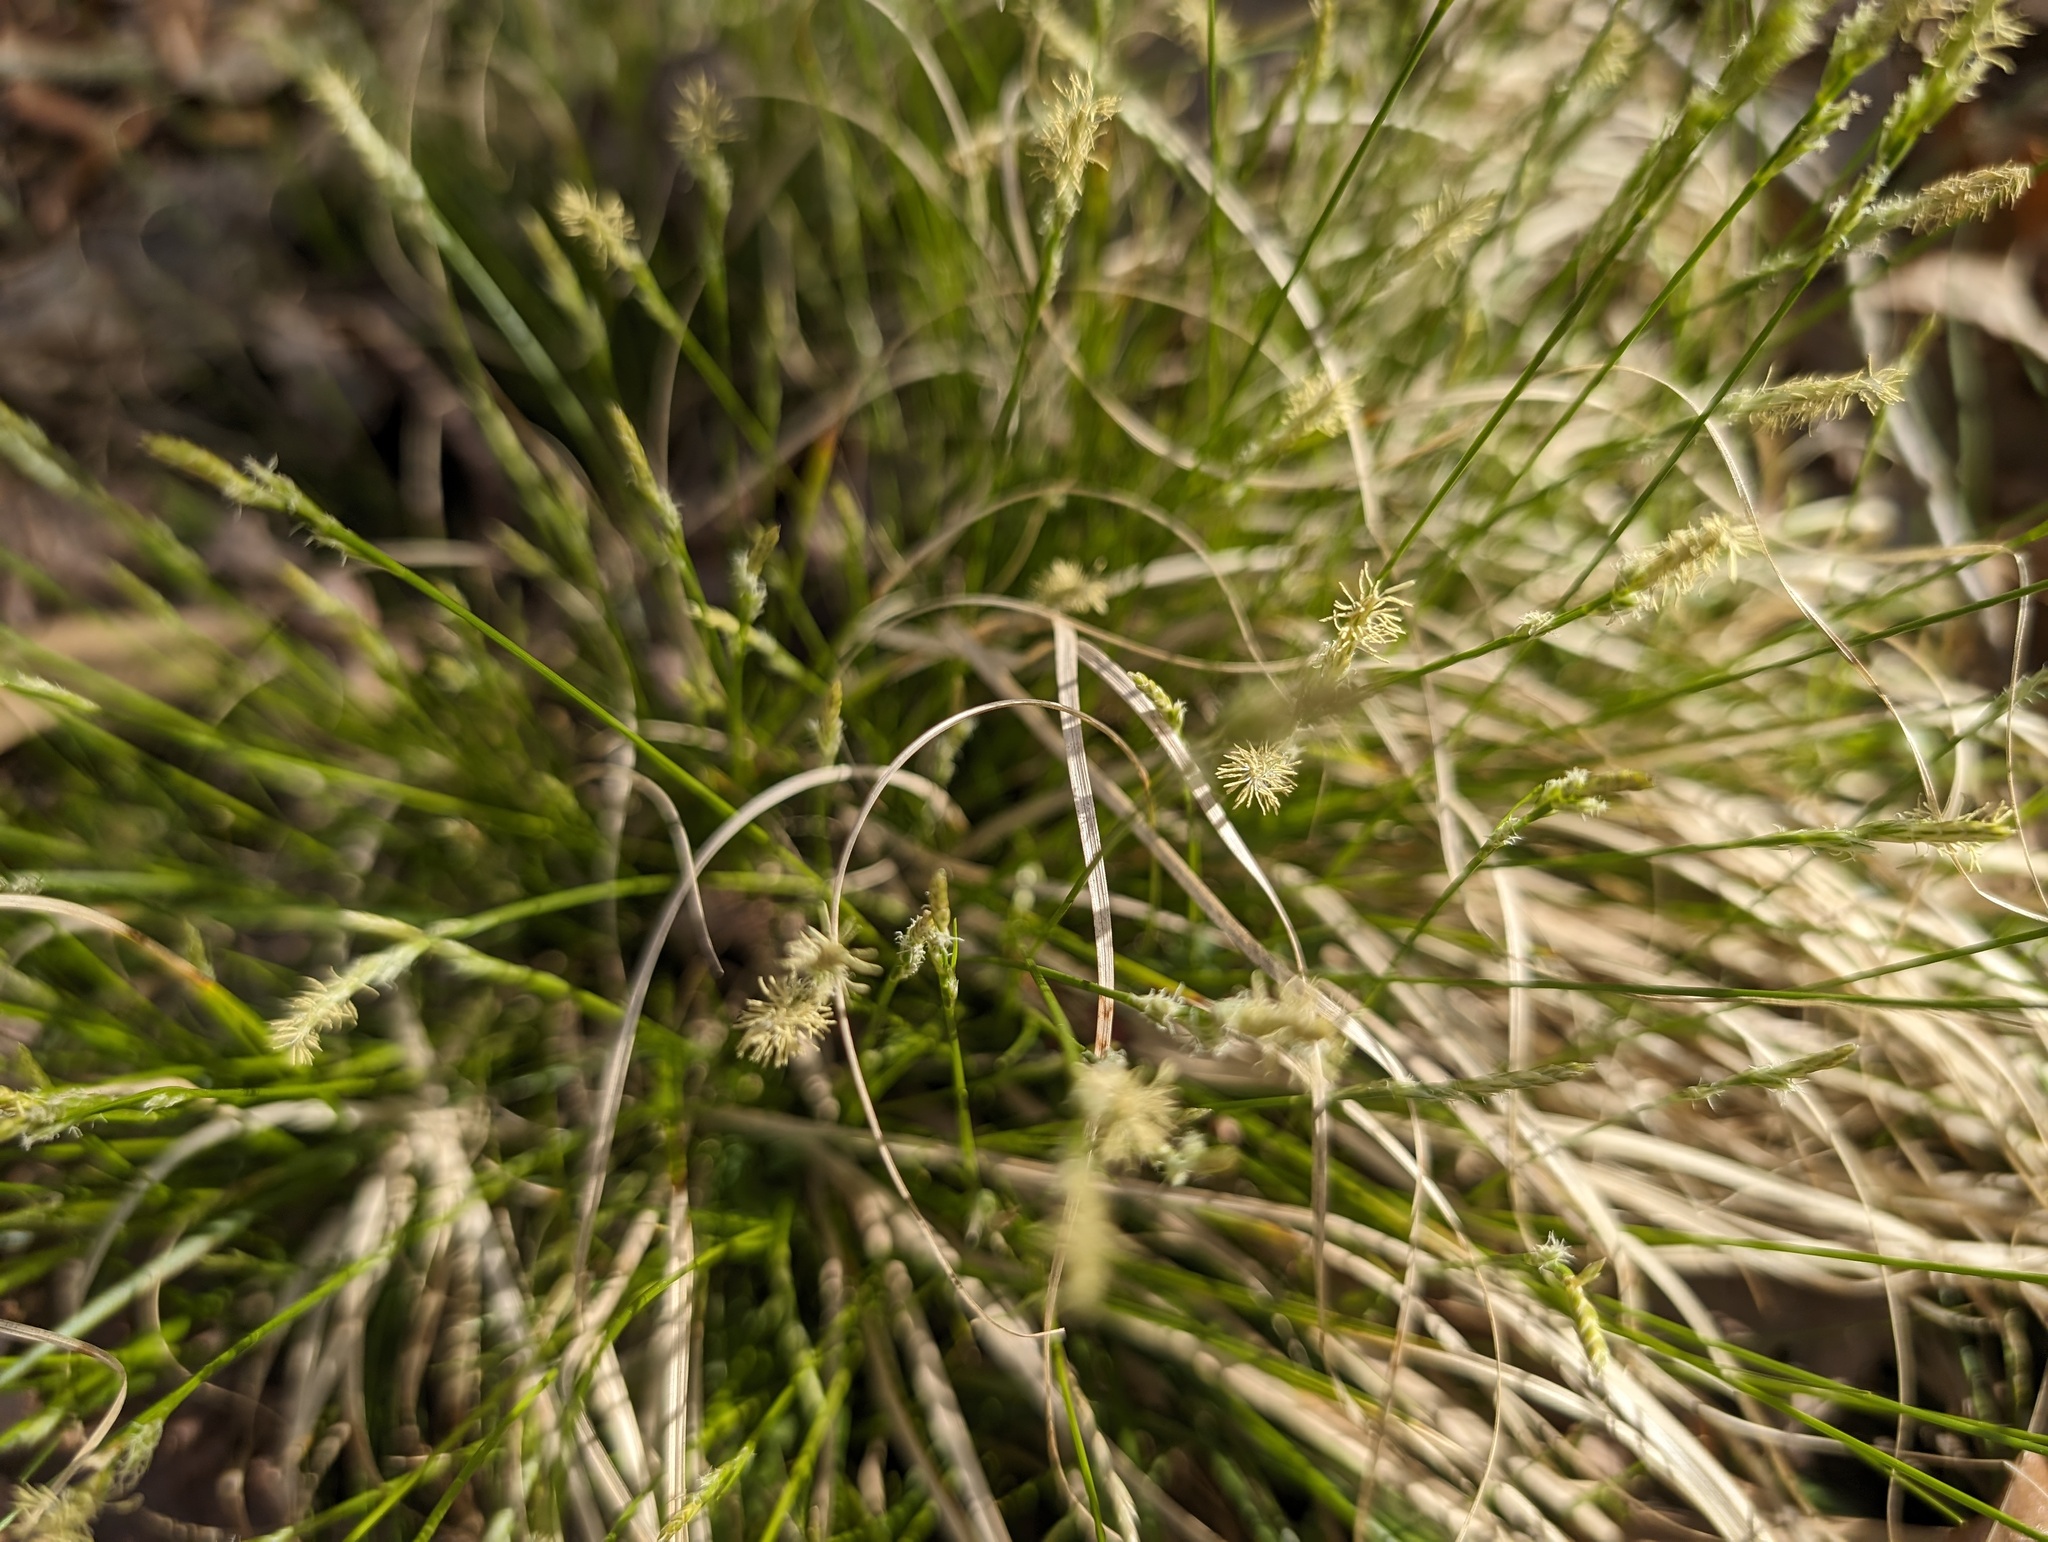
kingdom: Plantae
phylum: Tracheophyta
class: Liliopsida
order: Poales
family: Cyperaceae
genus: Carex
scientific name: Carex albicans
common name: Bellow-beaked sedge
